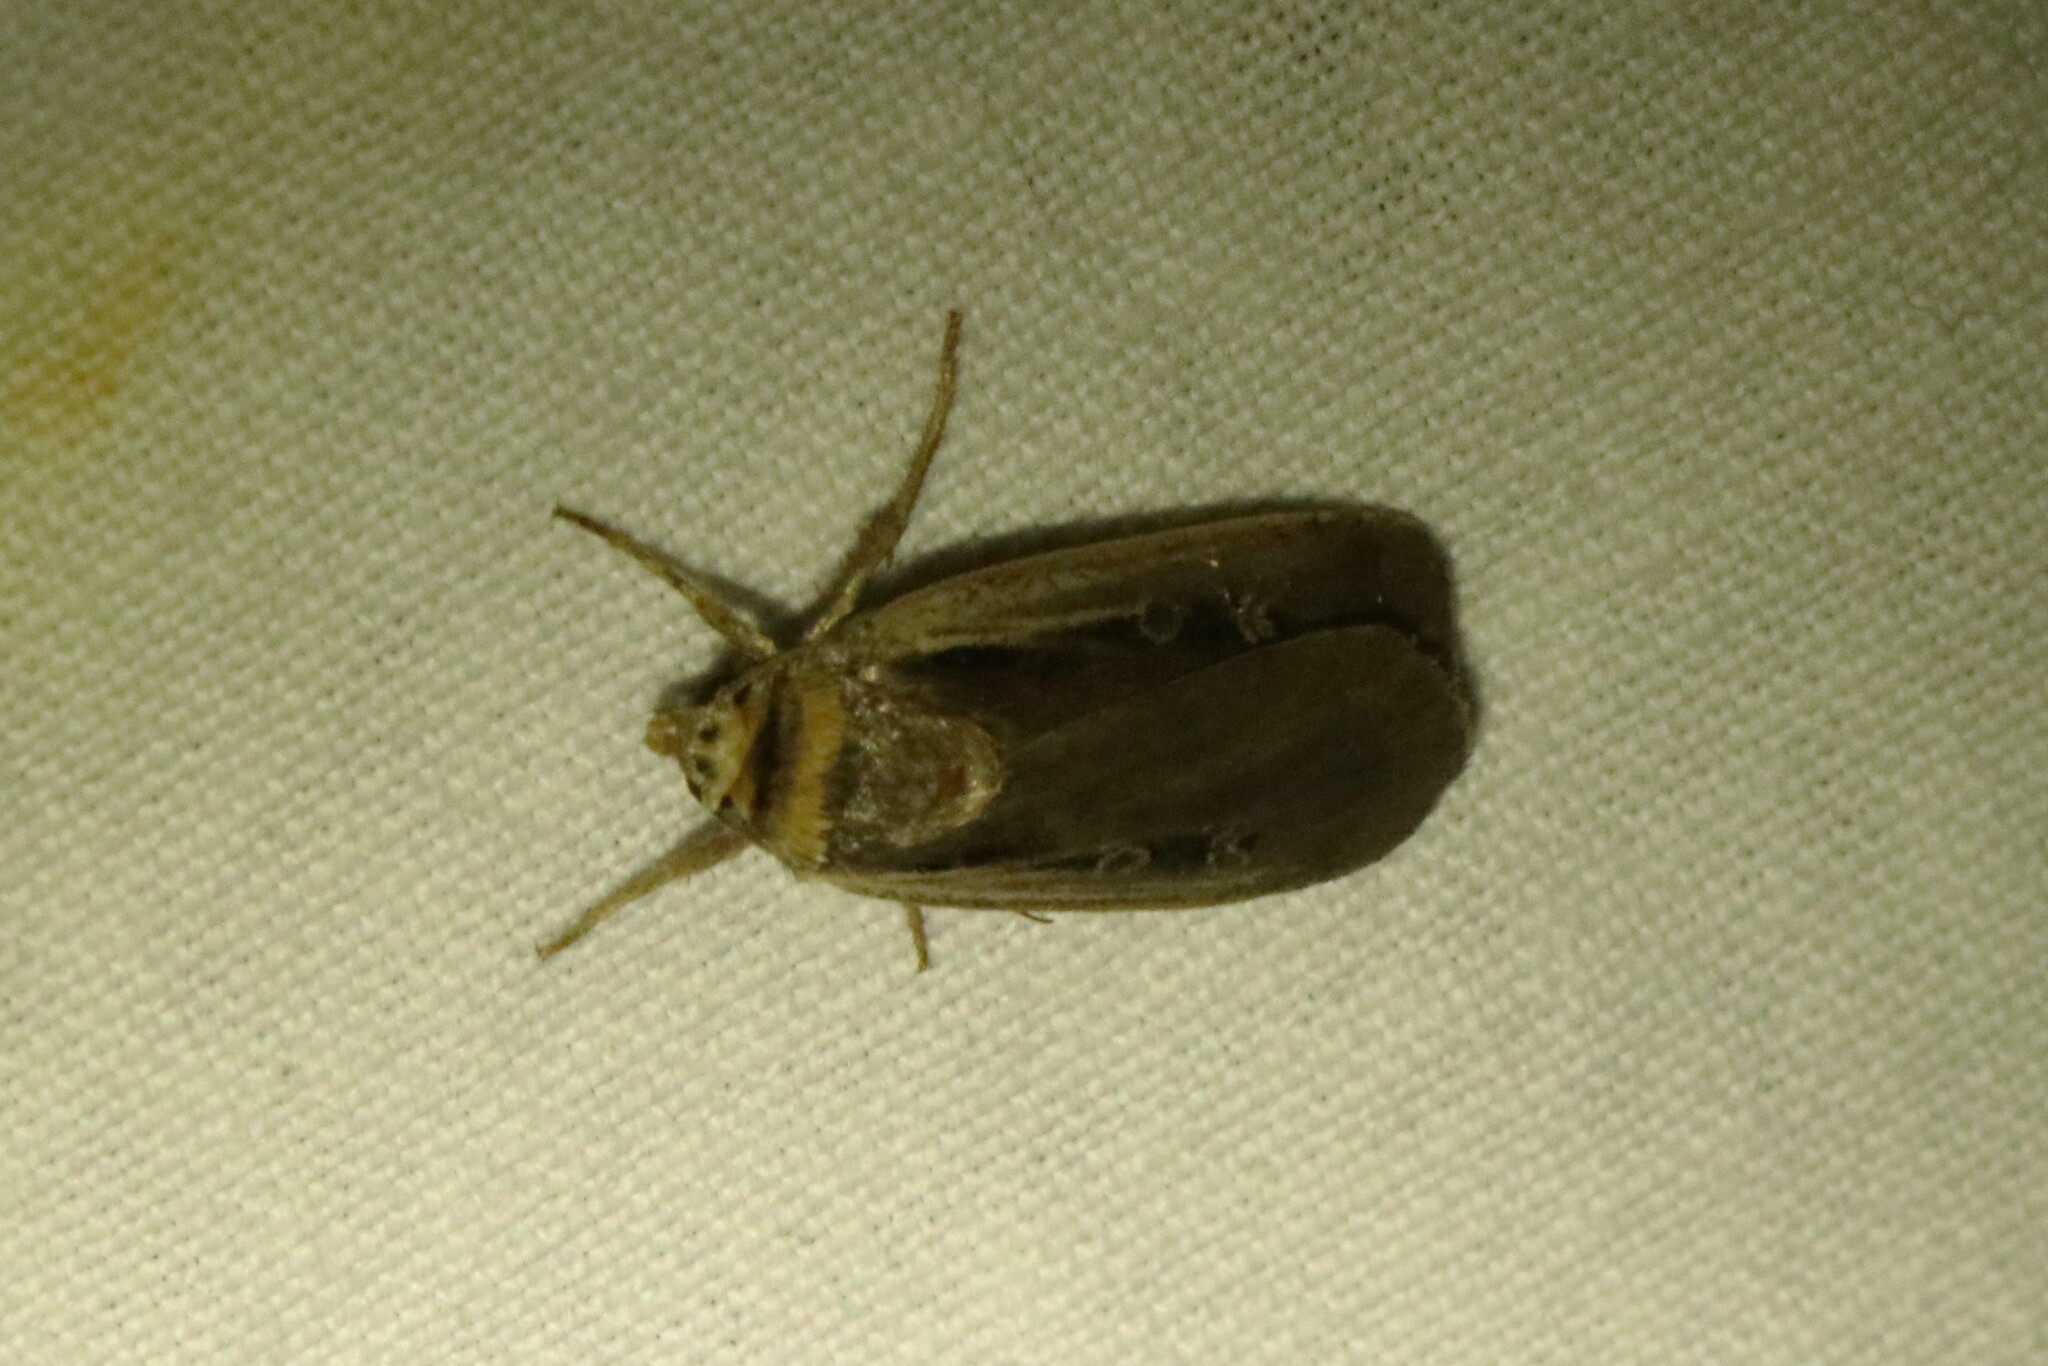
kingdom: Animalia
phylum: Arthropoda
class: Insecta
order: Lepidoptera
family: Noctuidae
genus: Ochropleura
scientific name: Ochropleura implecta
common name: Flame-shouldered dart
